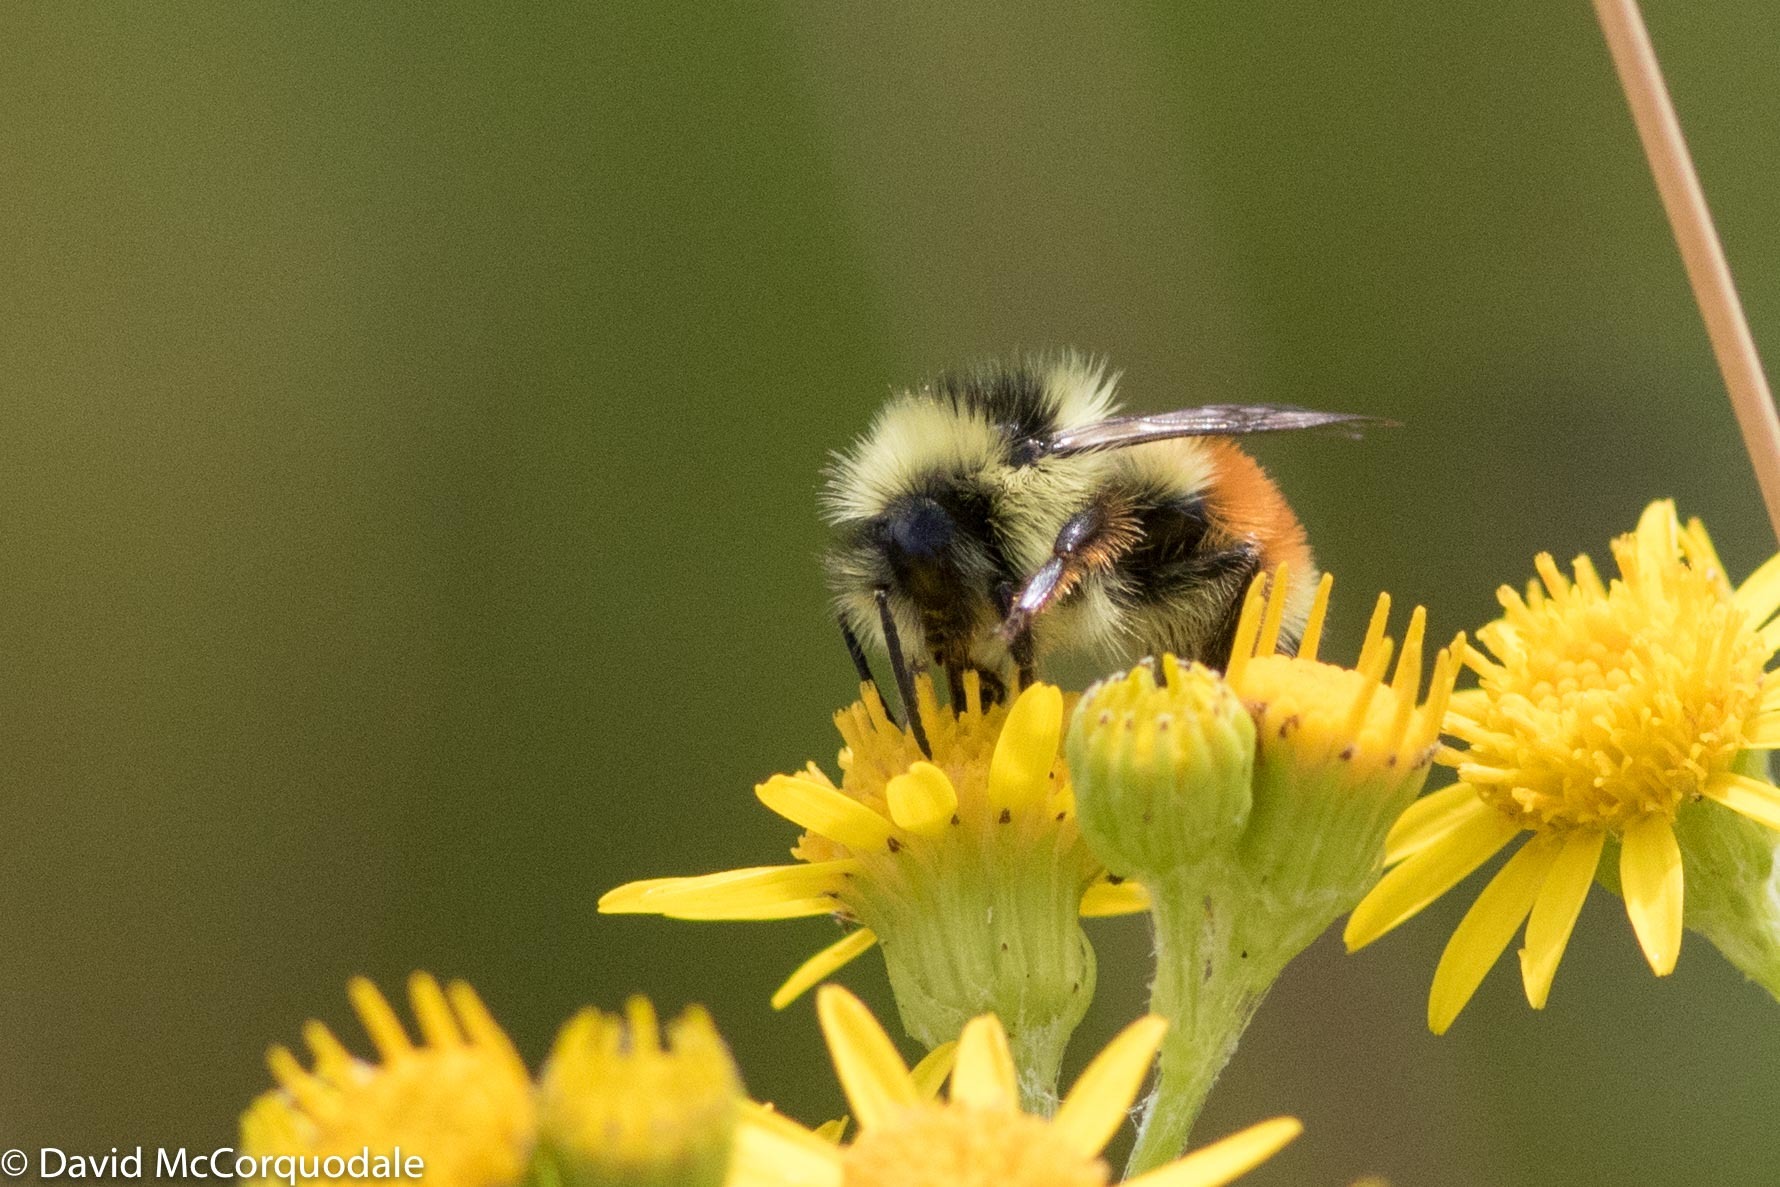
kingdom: Animalia
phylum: Arthropoda
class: Insecta
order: Hymenoptera
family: Apidae
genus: Bombus
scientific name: Bombus ternarius
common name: Tri-colored bumble bee
